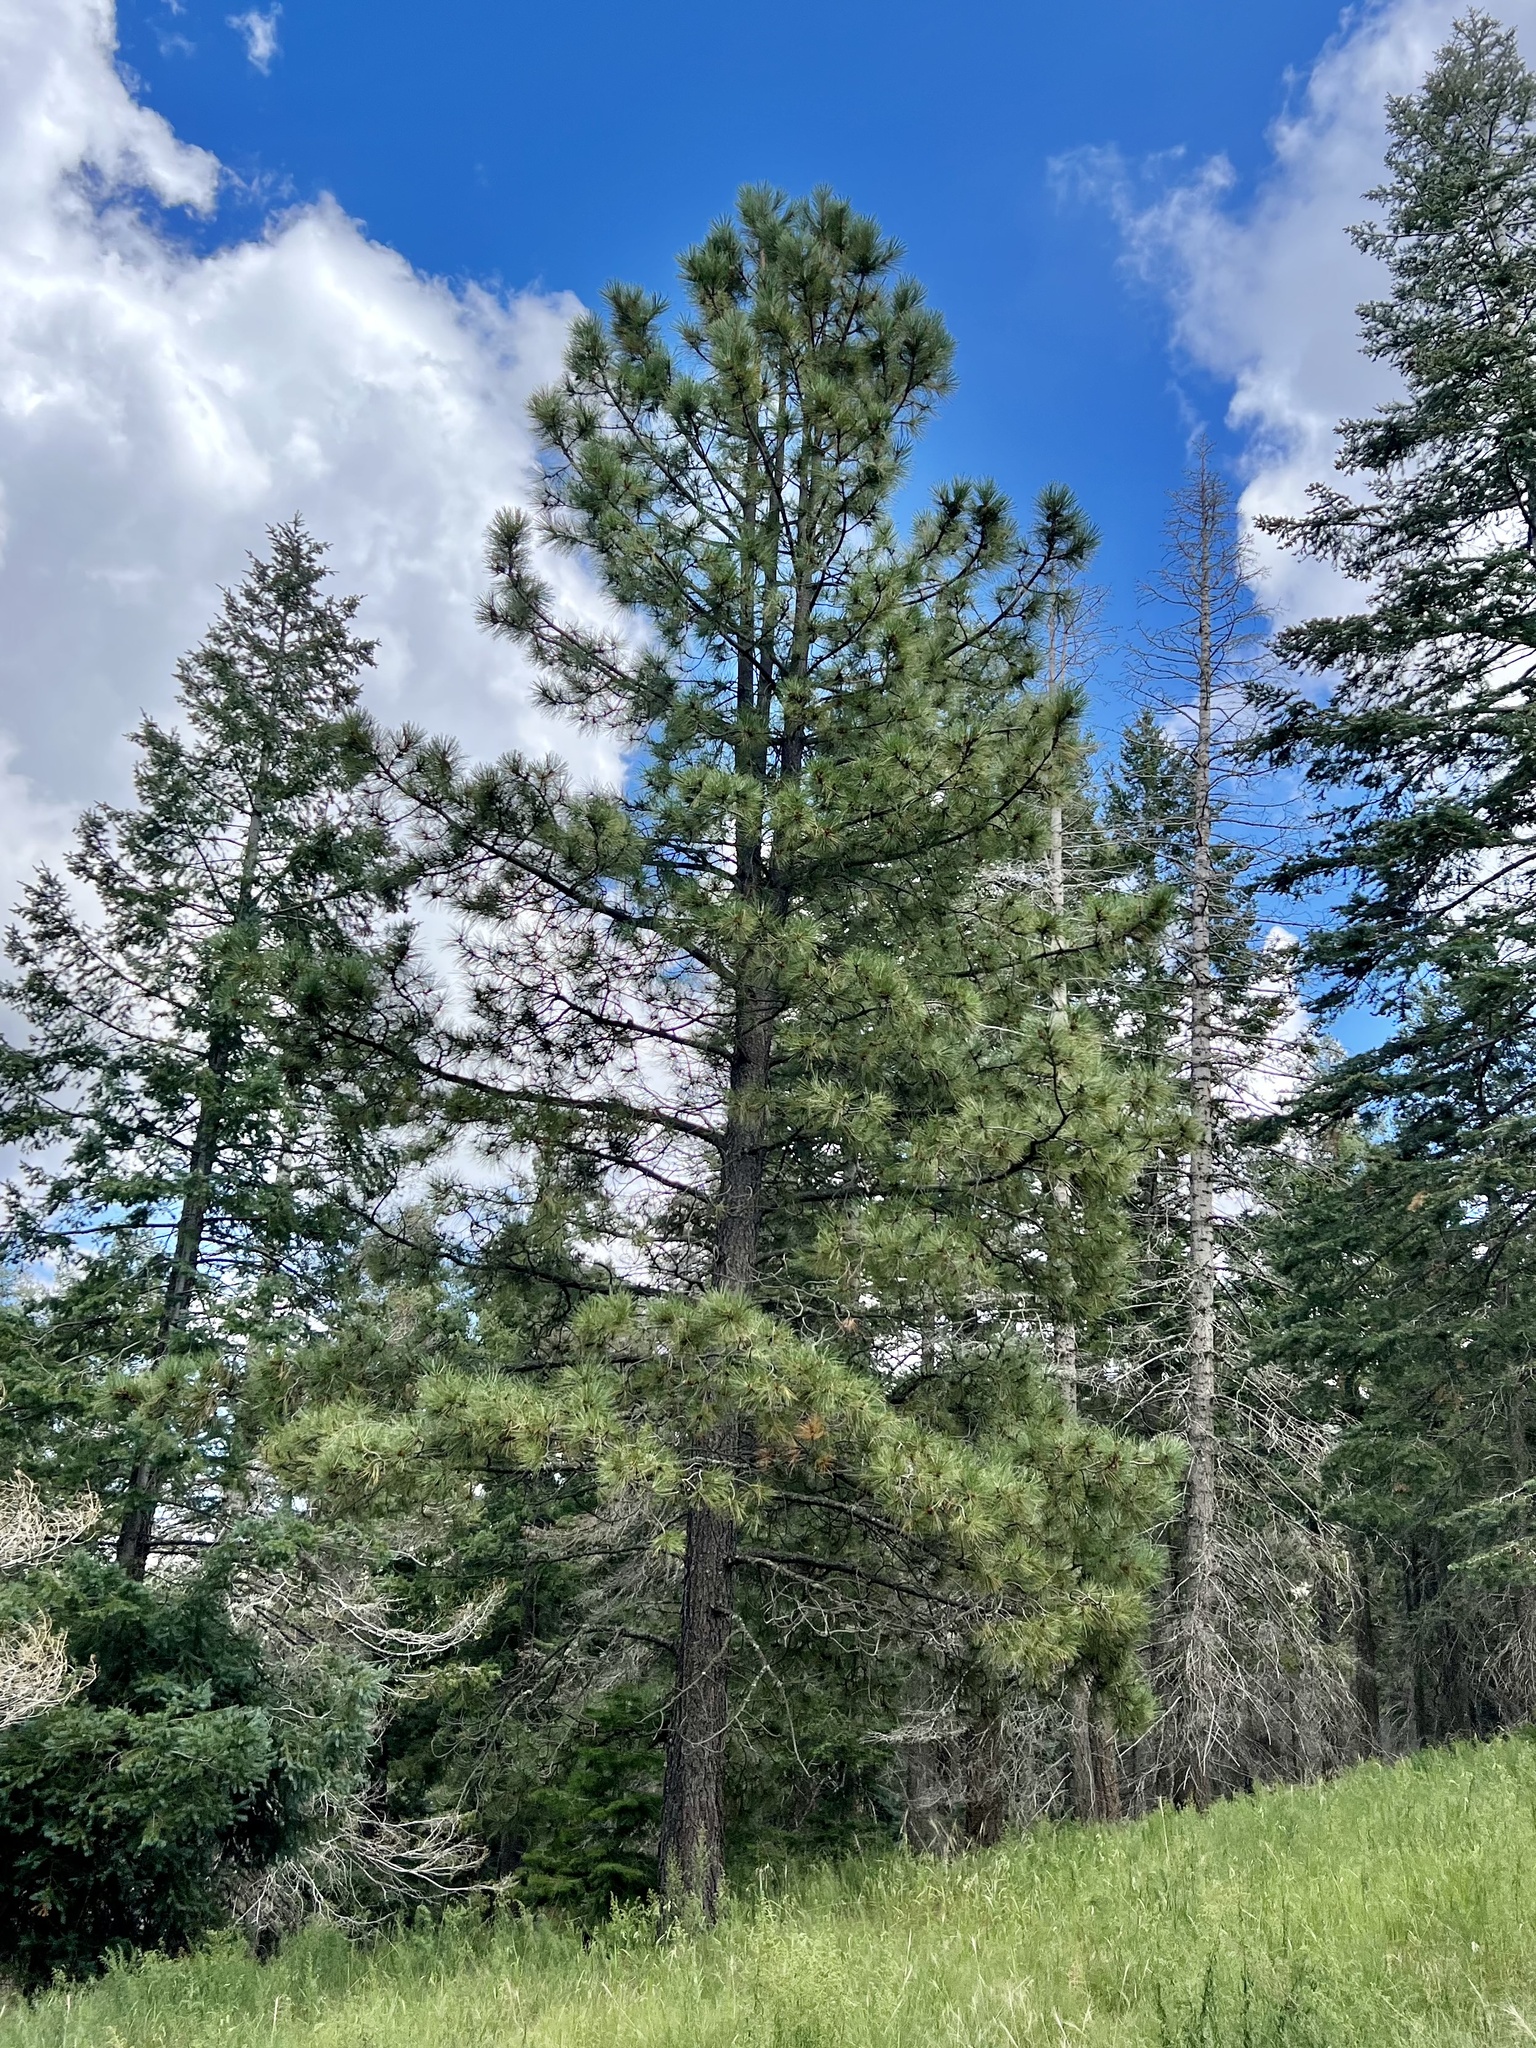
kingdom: Plantae
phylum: Tracheophyta
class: Pinopsida
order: Pinales
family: Pinaceae
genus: Pinus
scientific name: Pinus ponderosa
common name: Western yellow-pine
